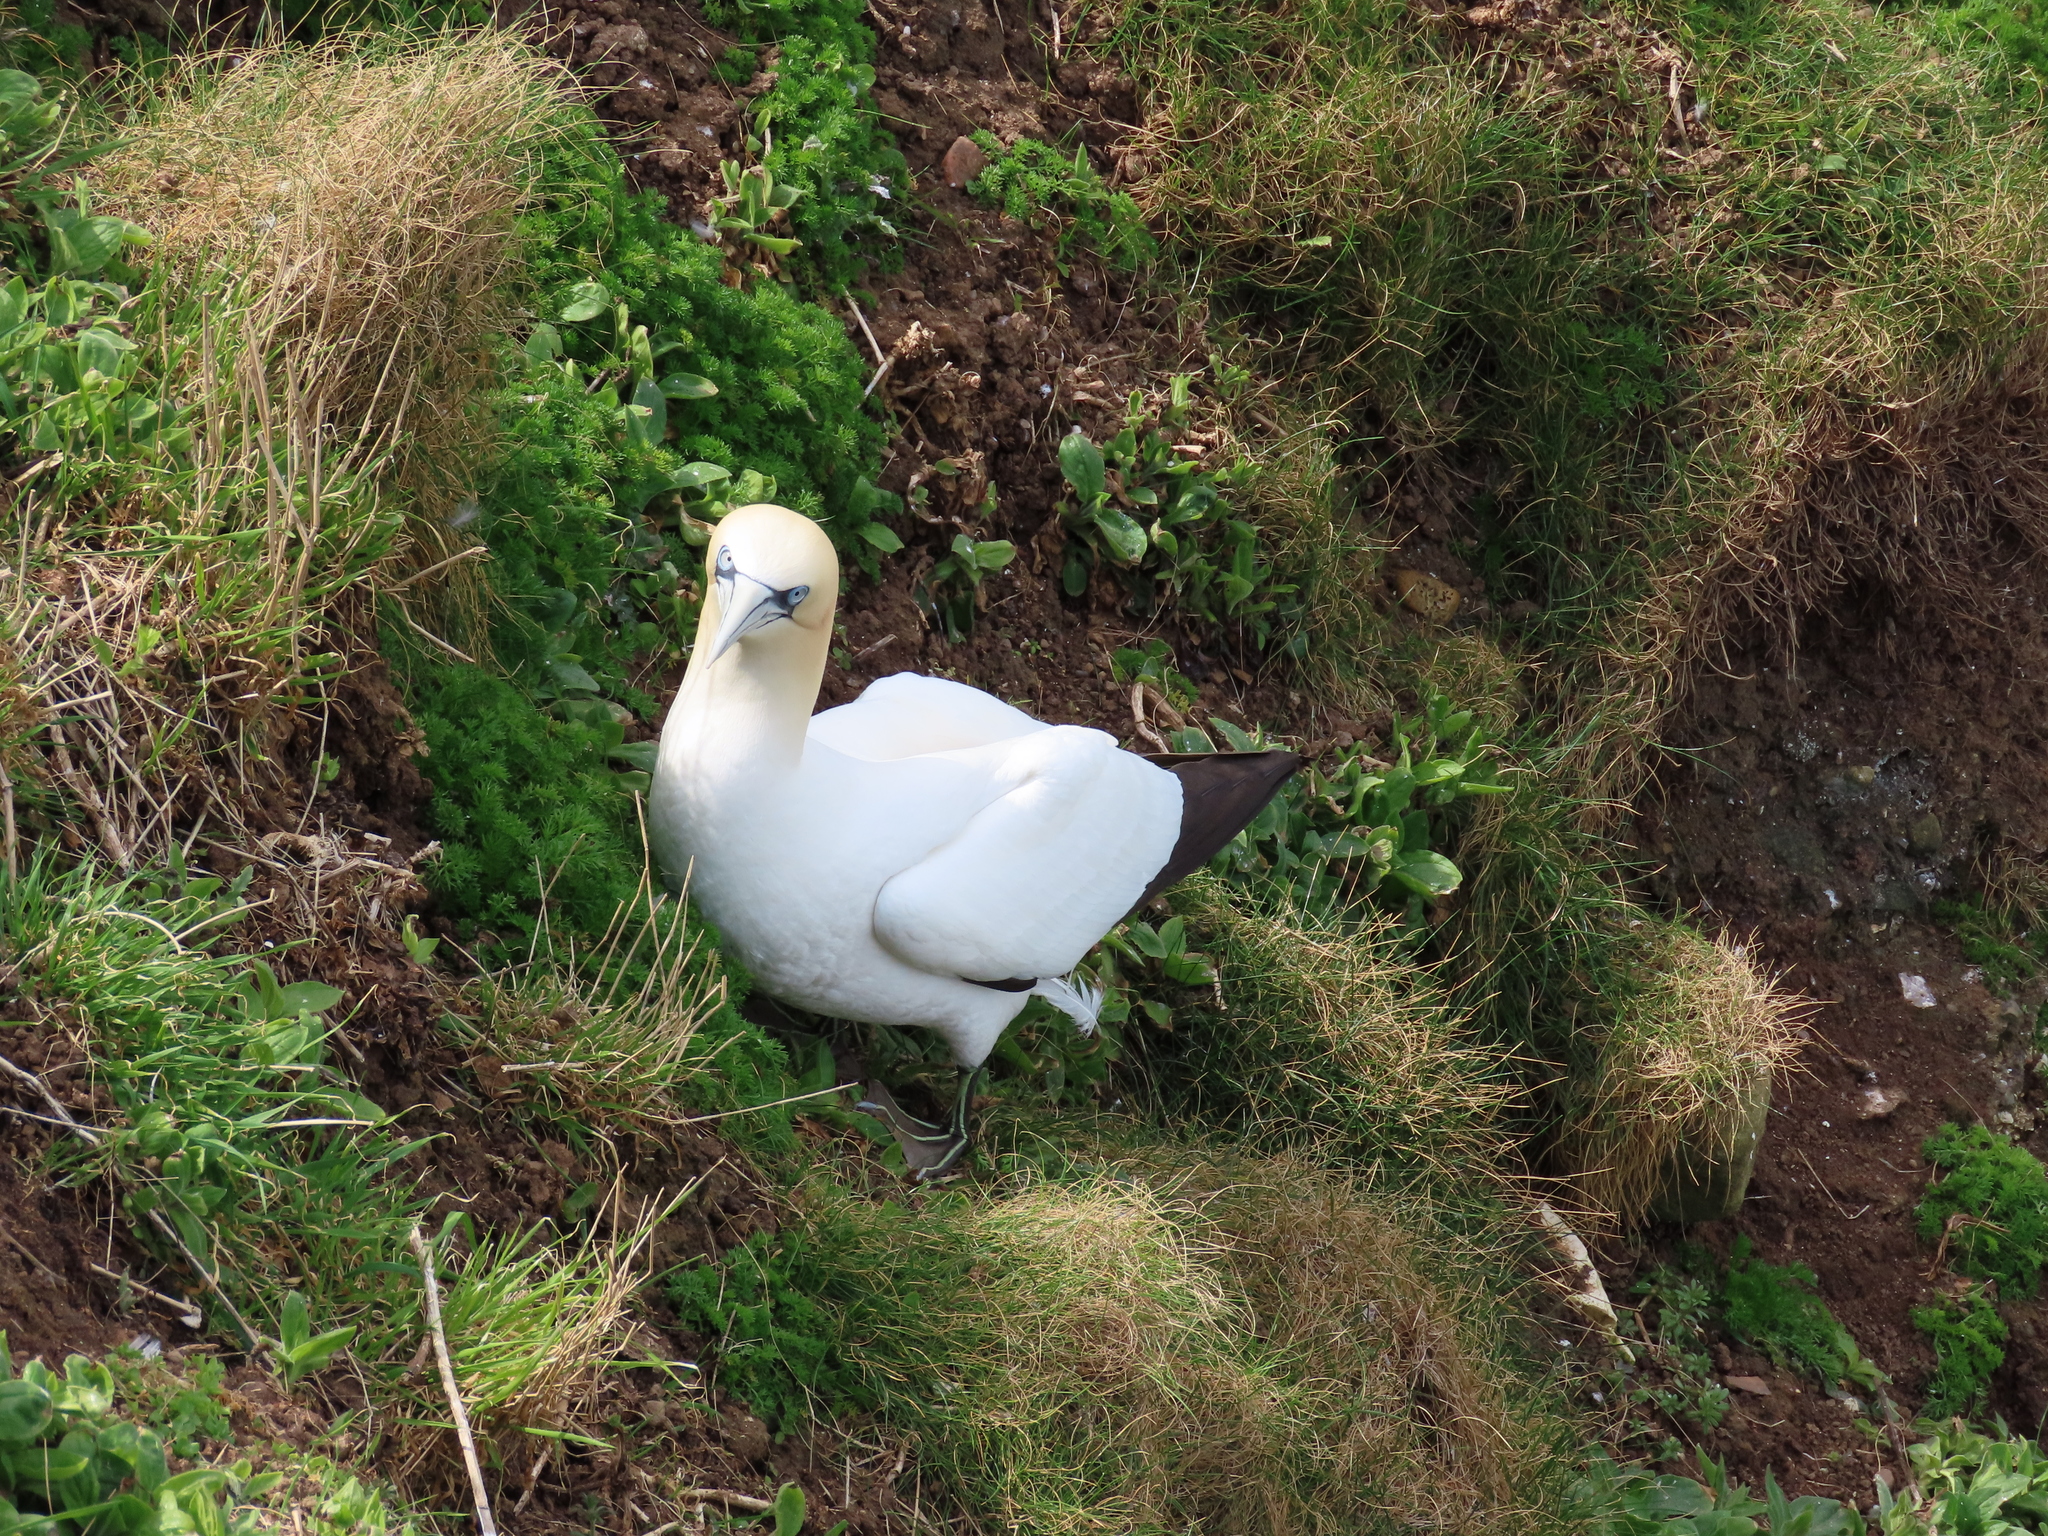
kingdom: Animalia
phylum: Chordata
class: Aves
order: Suliformes
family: Sulidae
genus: Morus
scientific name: Morus bassanus
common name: Northern gannet
